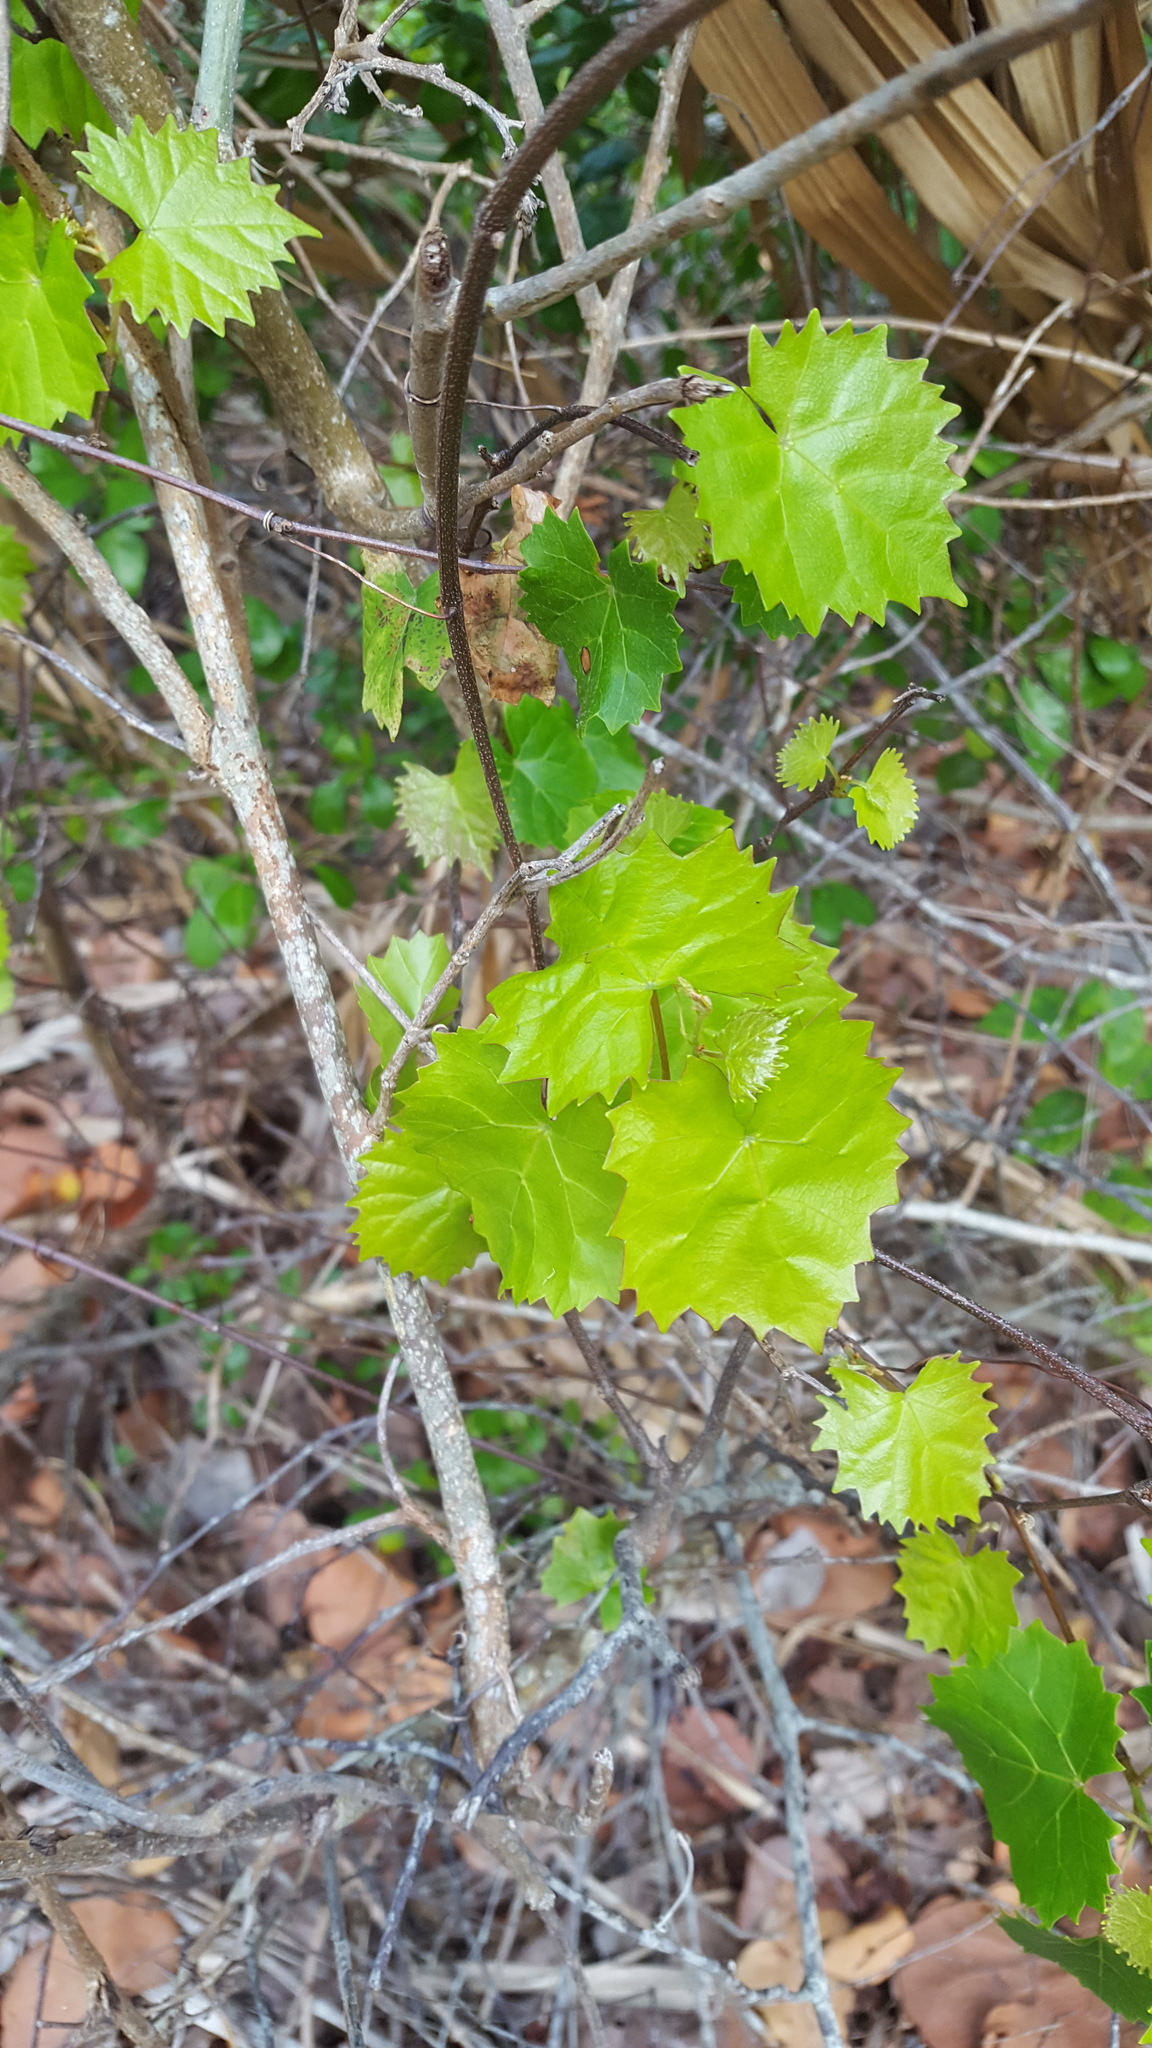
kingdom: Plantae
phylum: Tracheophyta
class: Magnoliopsida
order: Vitales
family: Vitaceae
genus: Vitis
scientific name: Vitis rotundifolia
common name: Muscadine grape
